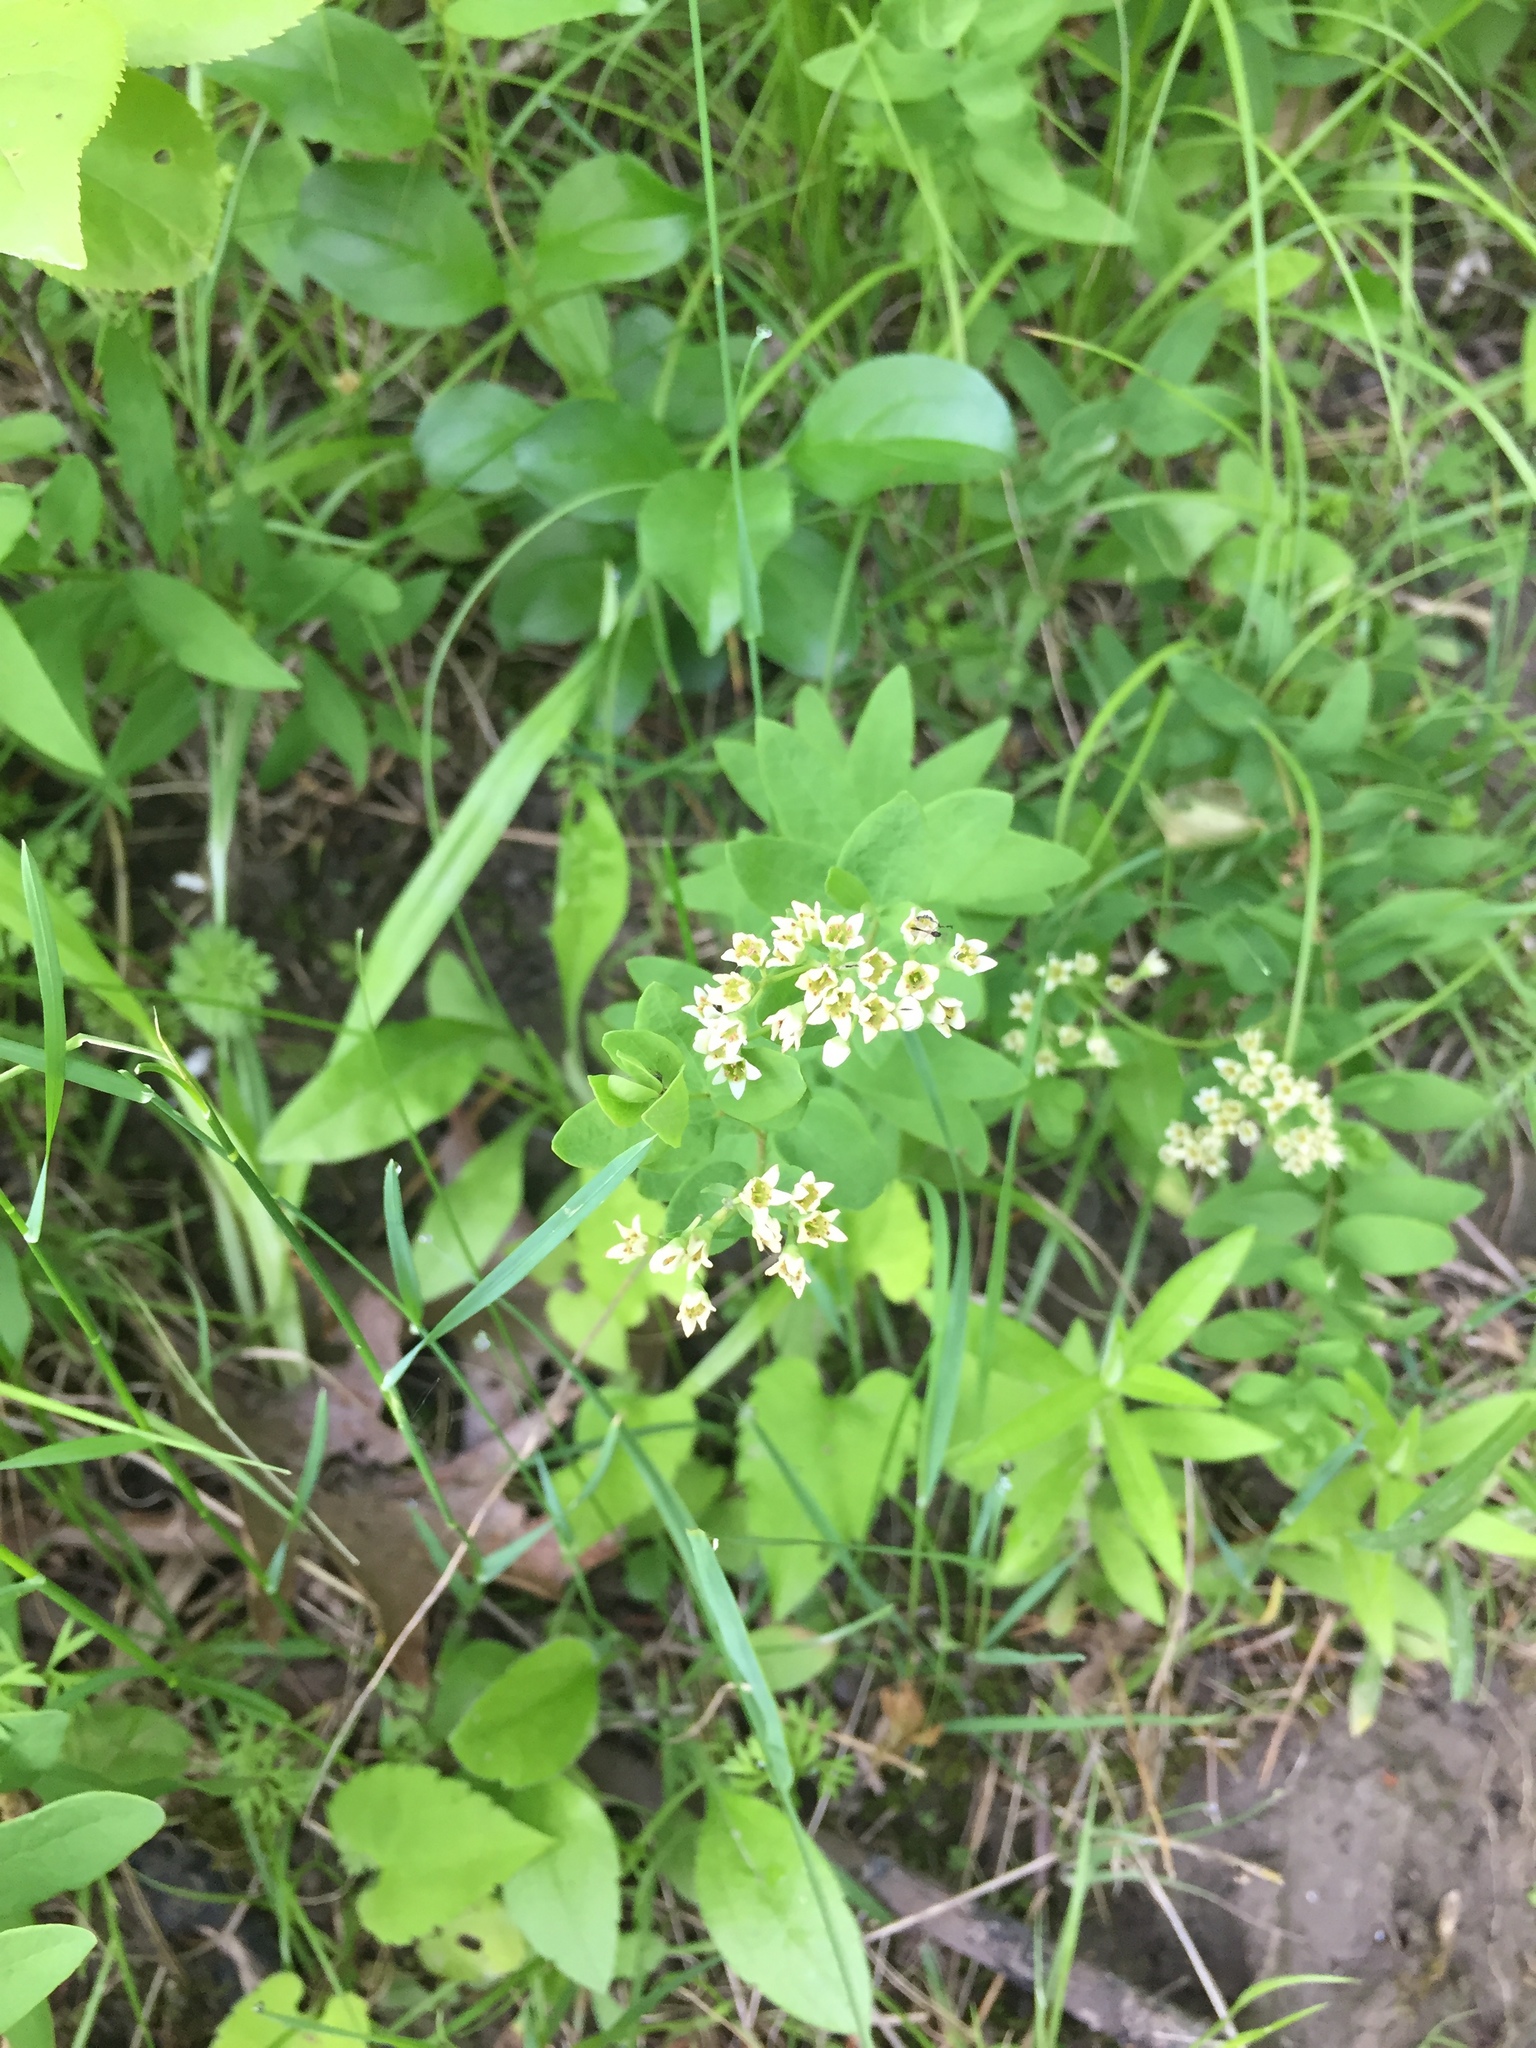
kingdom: Plantae
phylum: Tracheophyta
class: Magnoliopsida
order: Santalales
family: Comandraceae
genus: Comandra
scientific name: Comandra umbellata
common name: Bastard toadflax
